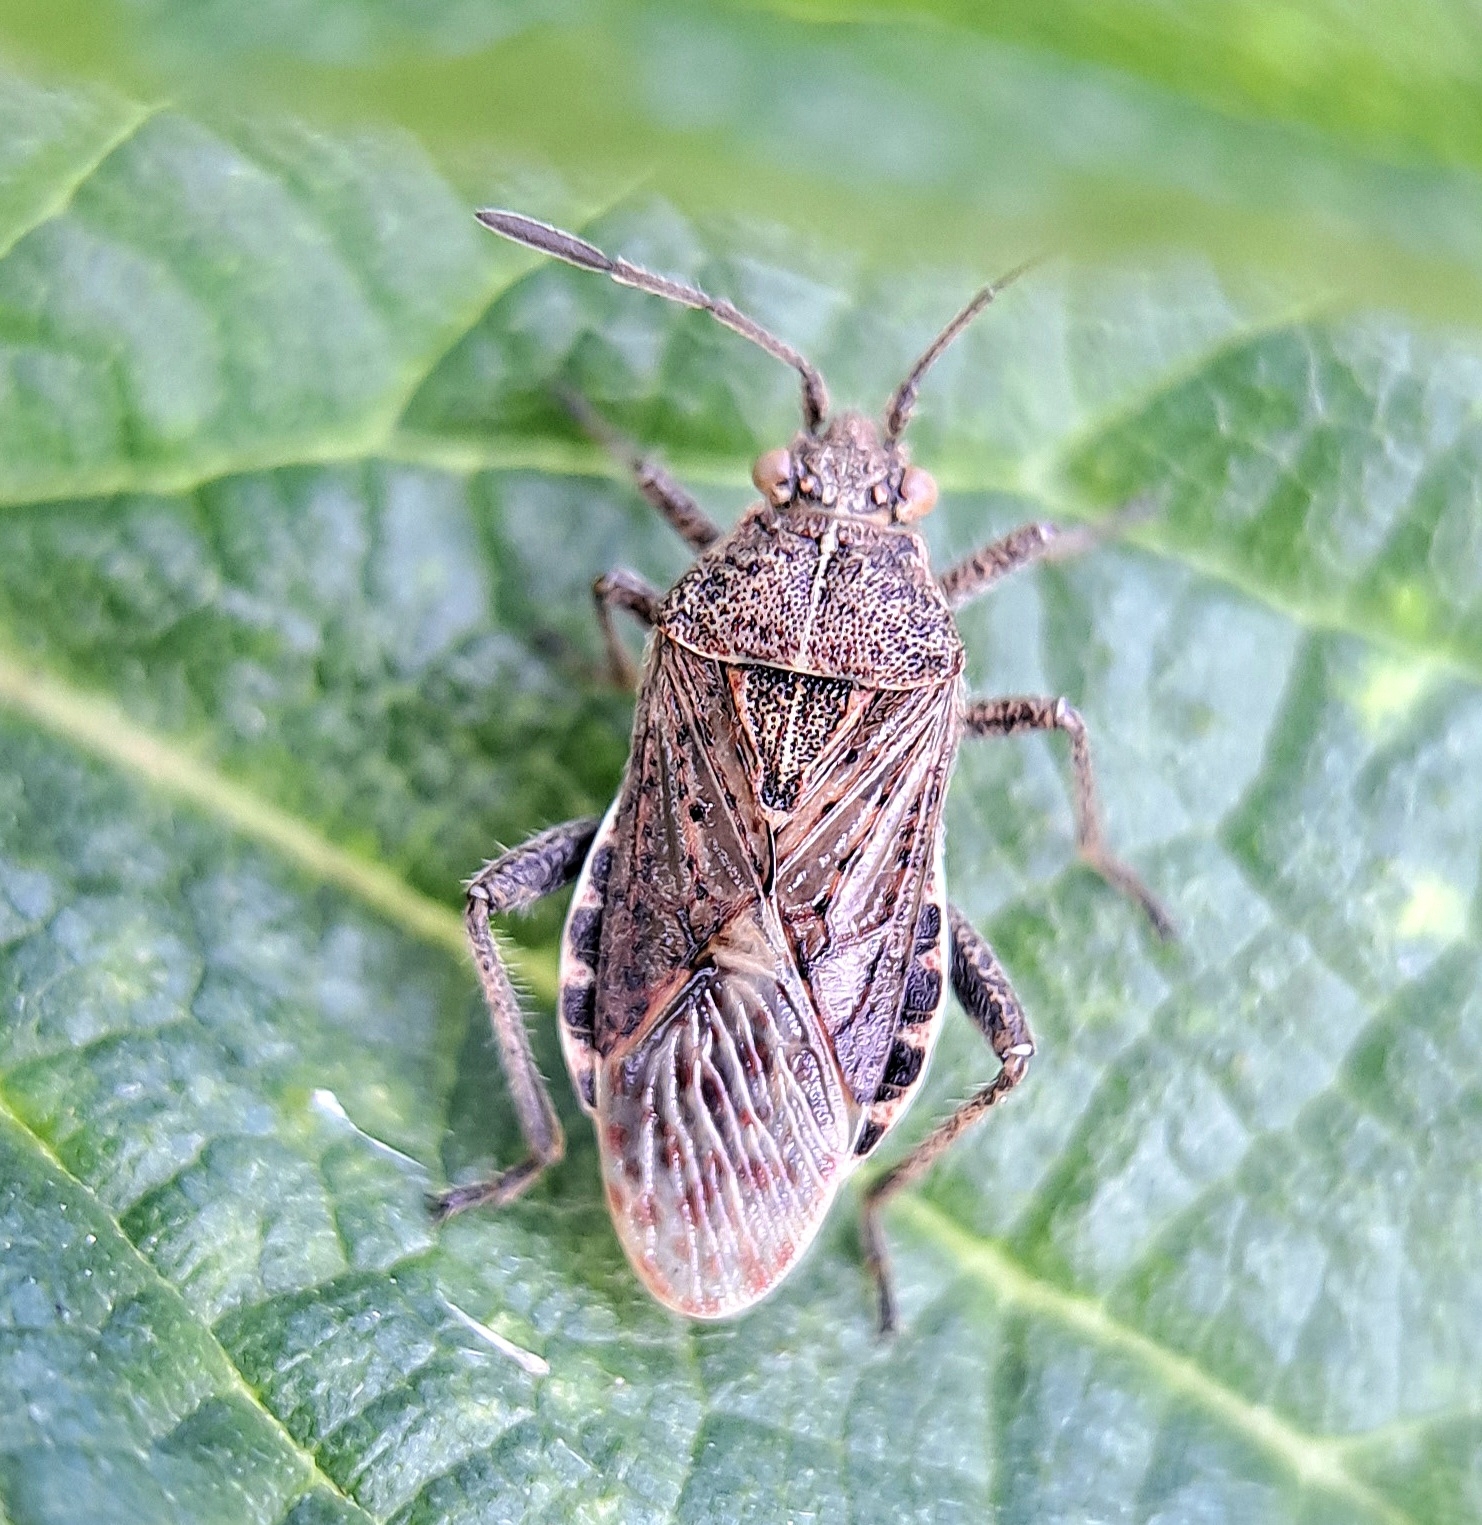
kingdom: Animalia
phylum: Arthropoda
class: Insecta
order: Hemiptera
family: Rhopalidae
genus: Stictopleurus
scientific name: Stictopleurus punctatonervosus
